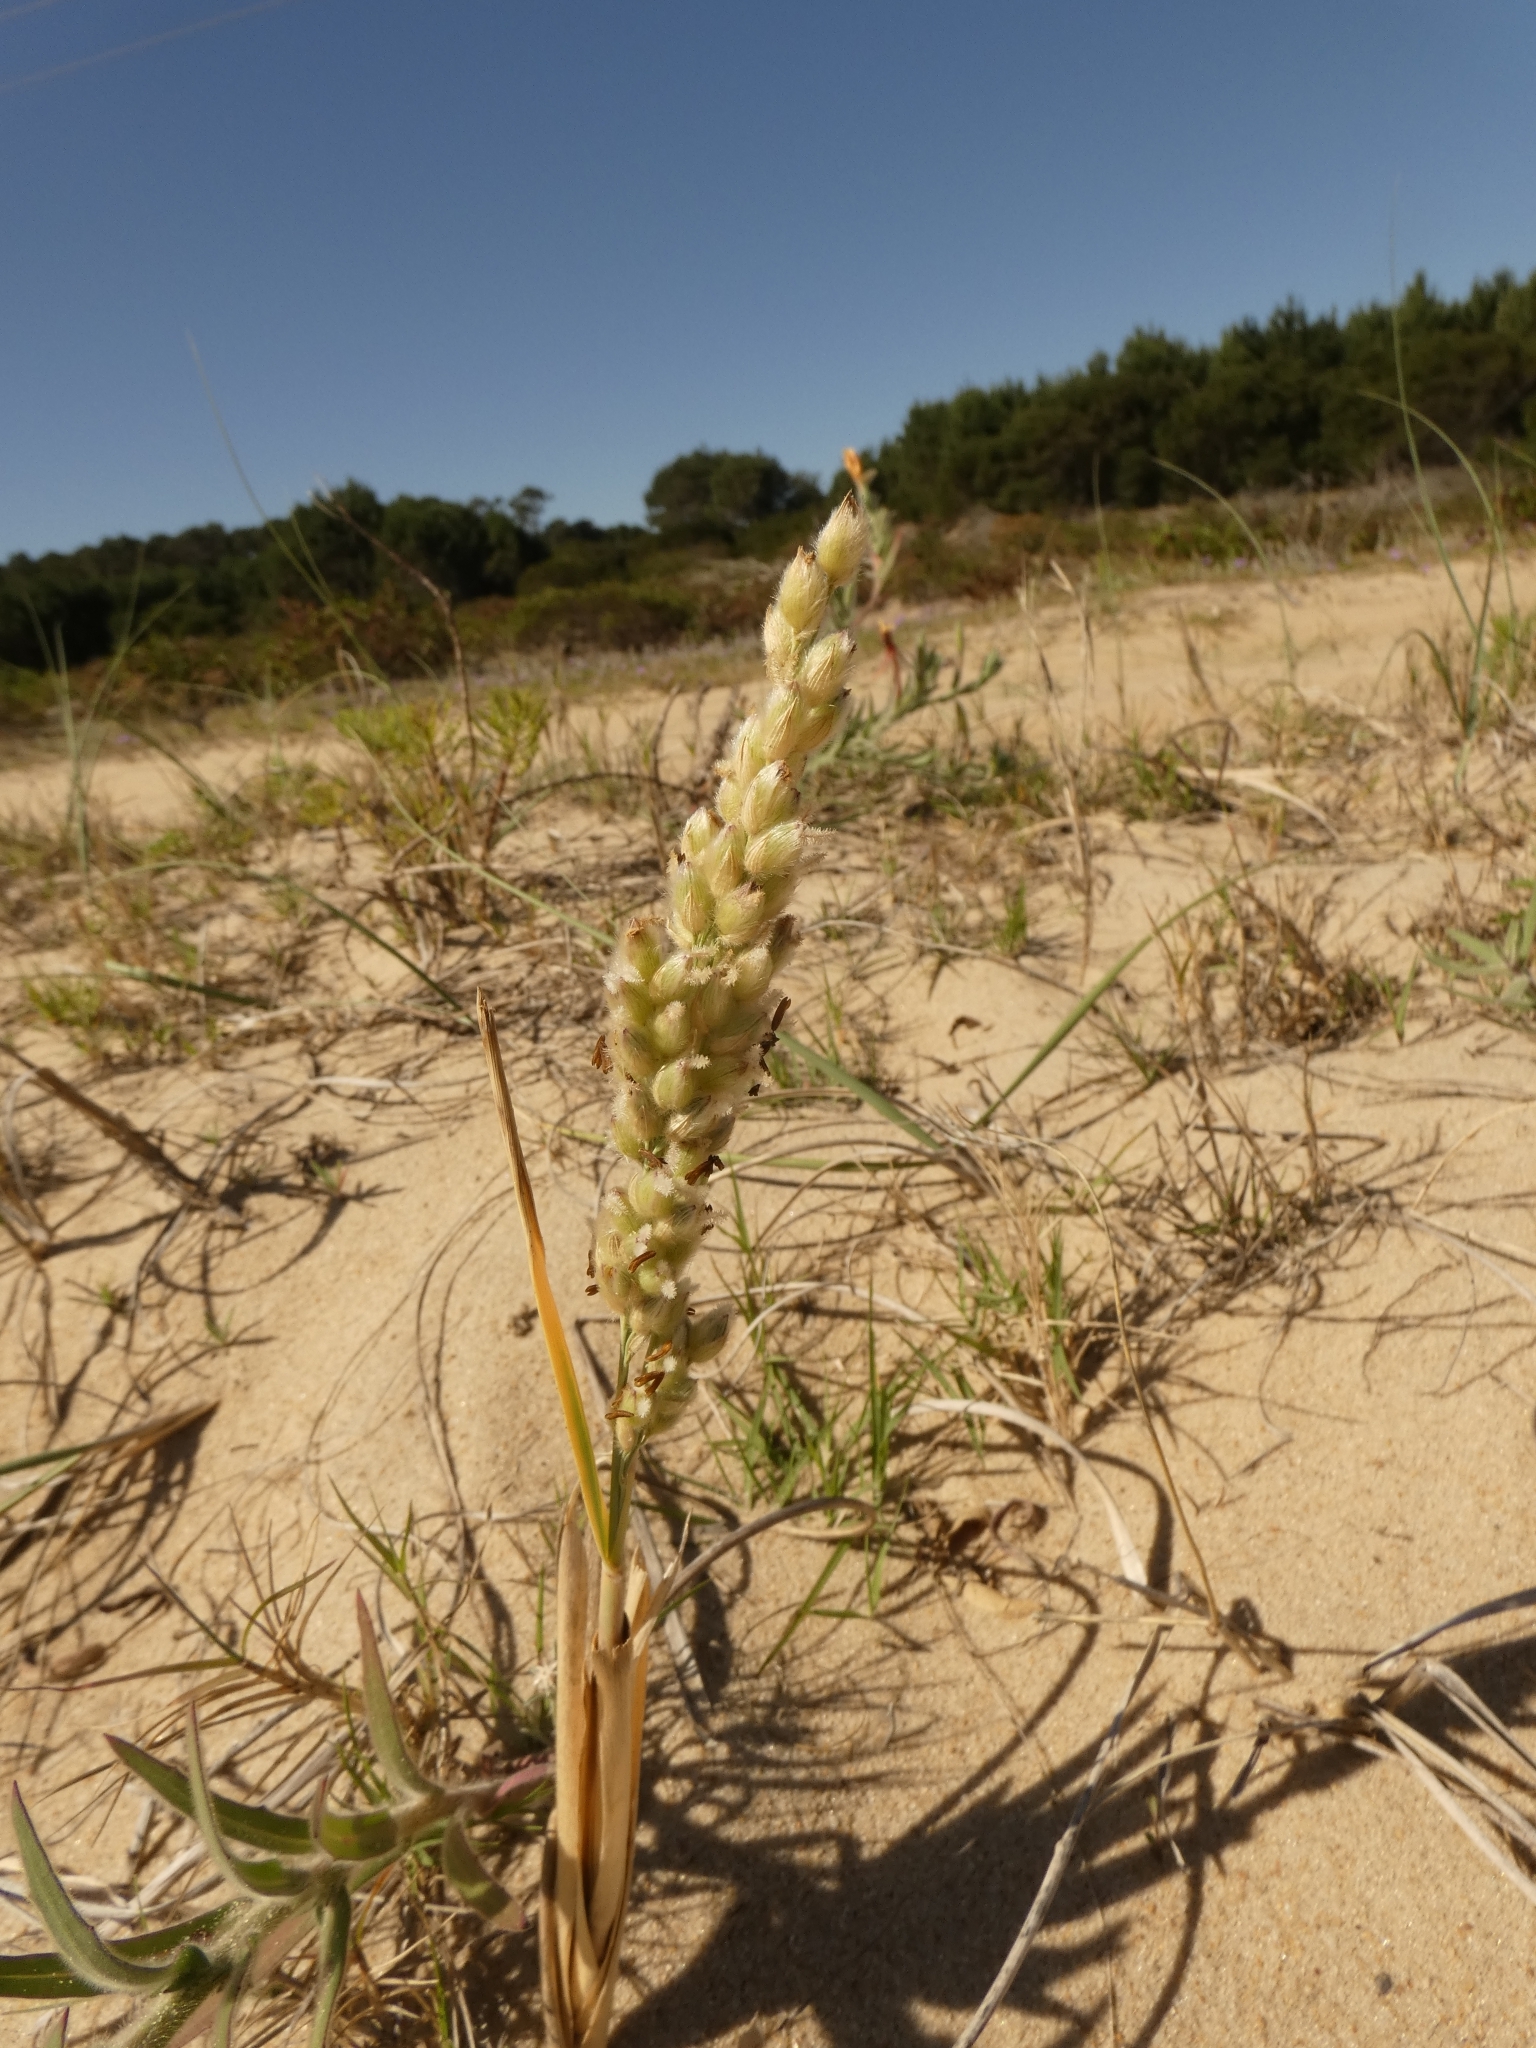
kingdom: Plantae
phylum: Tracheophyta
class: Liliopsida
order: Poales
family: Poaceae
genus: Panicum
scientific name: Panicum racemosum
